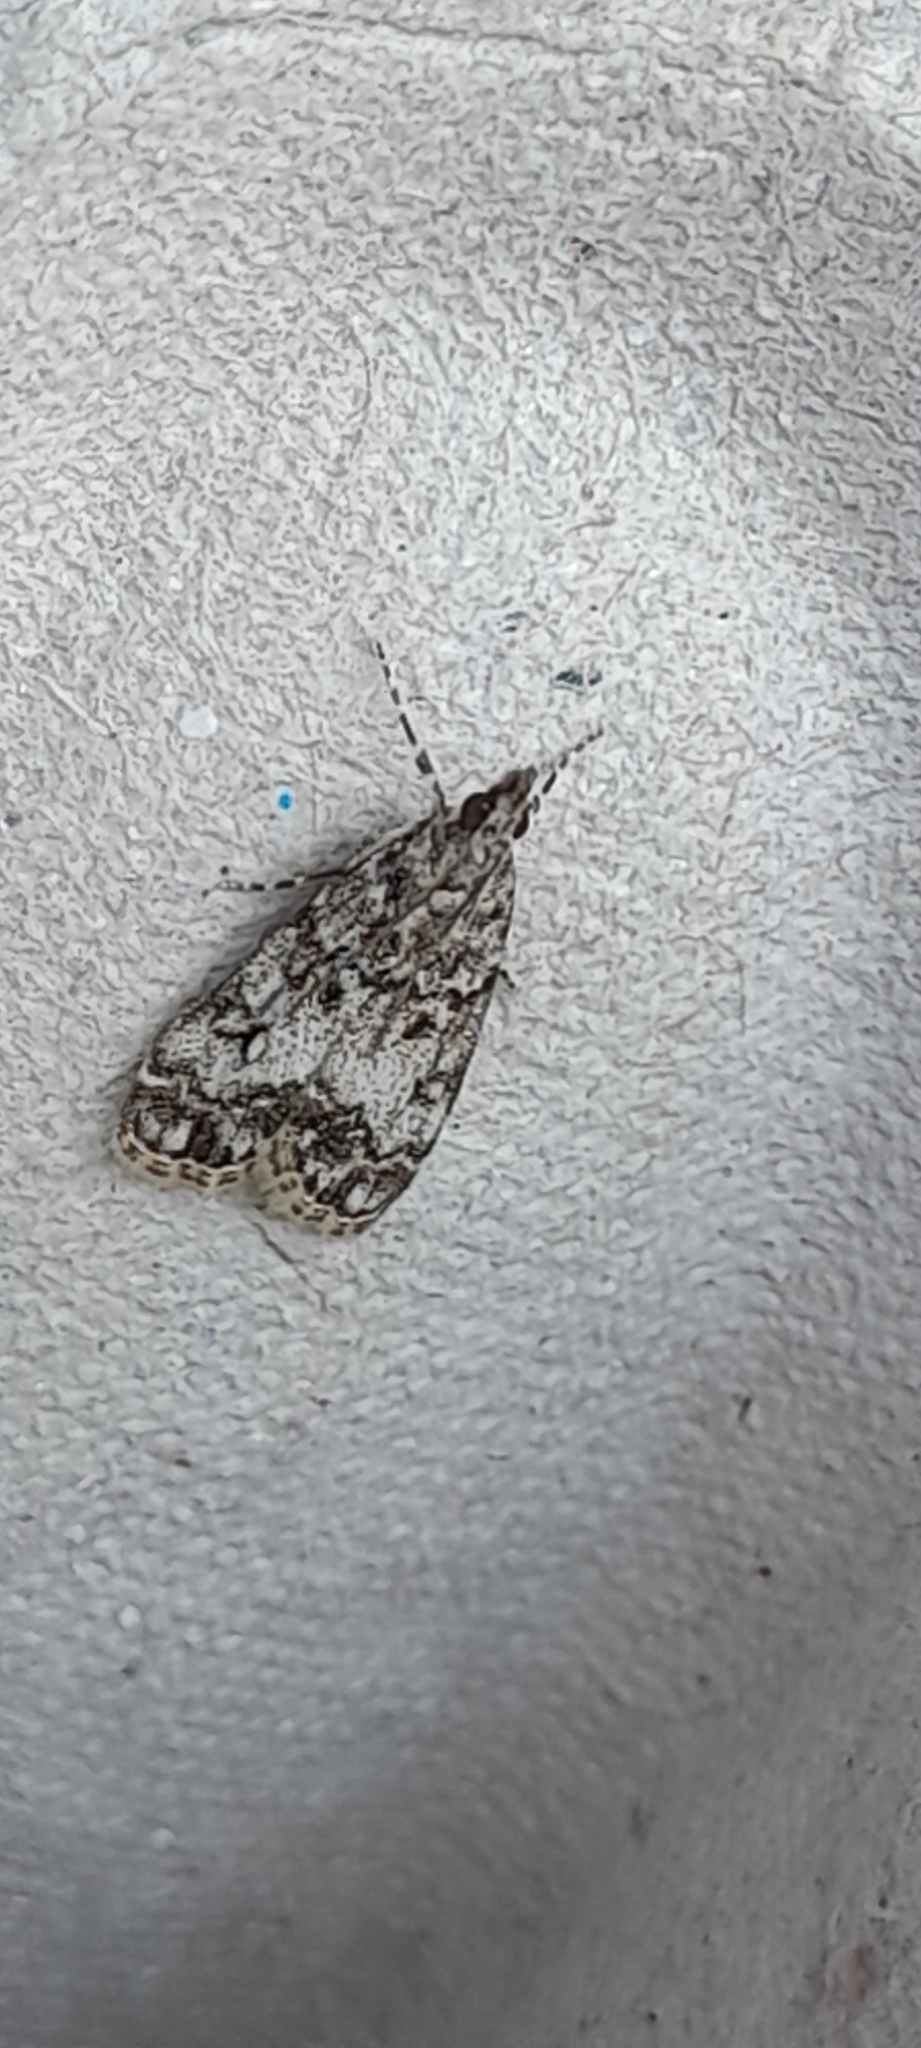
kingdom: Animalia
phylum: Arthropoda
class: Insecta
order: Lepidoptera
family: Crambidae
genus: Eudonia
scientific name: Eudonia lacustrata
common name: Little grey
